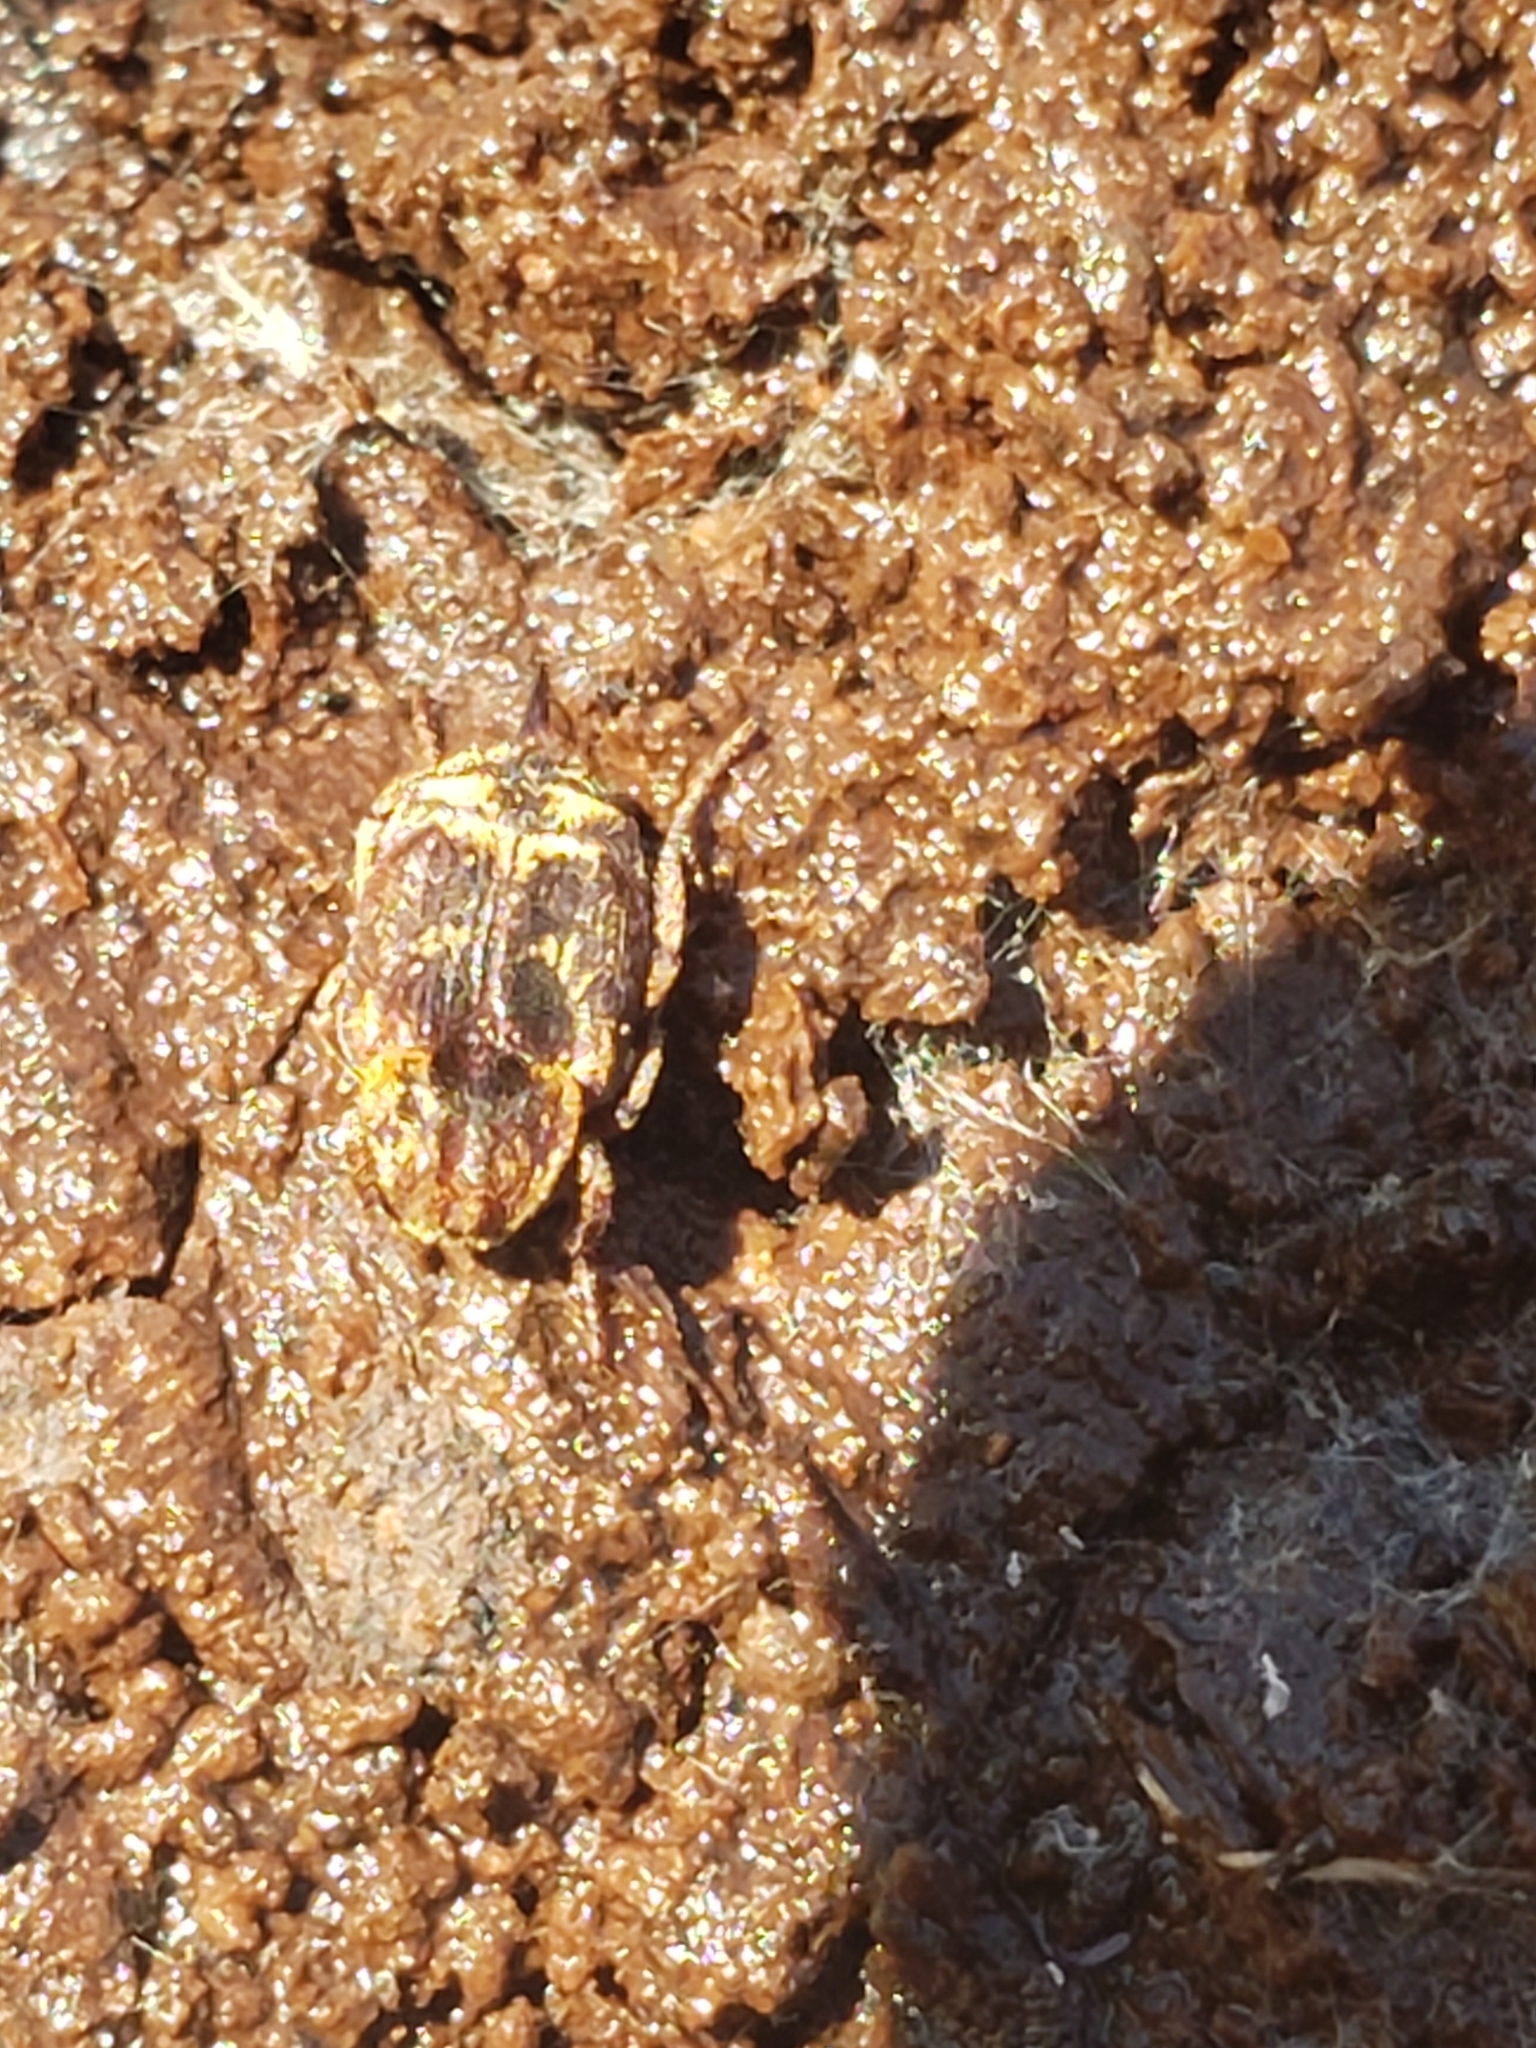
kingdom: Animalia
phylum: Arthropoda
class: Insecta
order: Coleoptera
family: Scarabaeidae
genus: Valgus
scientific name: Valgus canaliculatus
